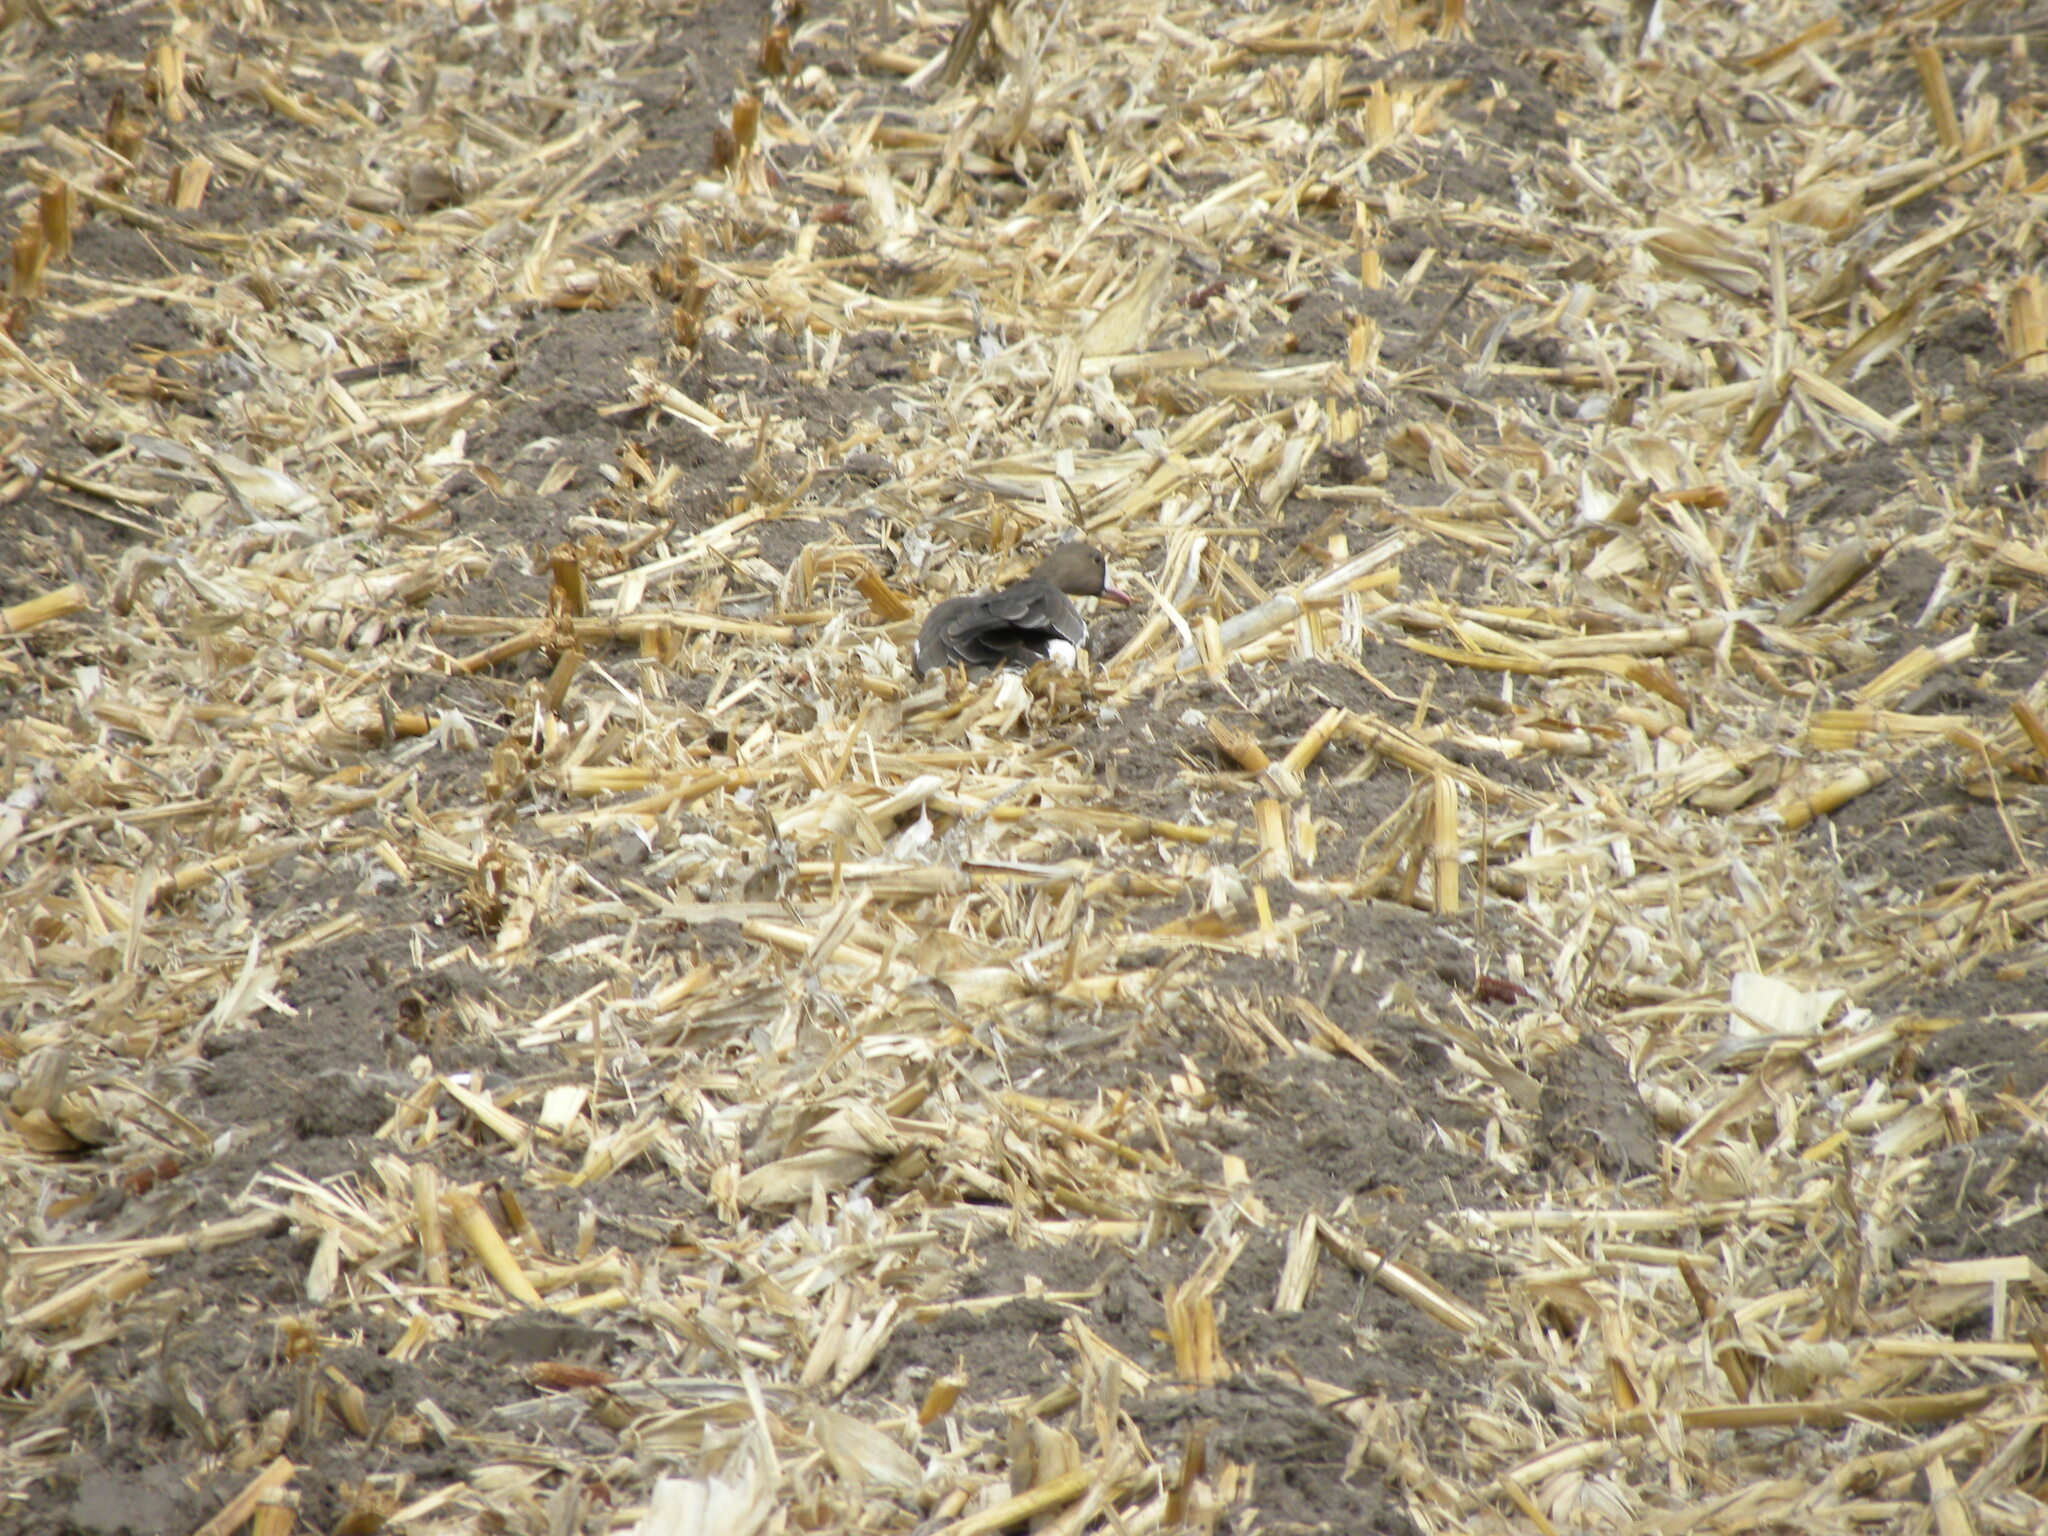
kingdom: Animalia
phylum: Chordata
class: Aves
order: Anseriformes
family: Anatidae
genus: Anser
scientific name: Anser albifrons
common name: Greater white-fronted goose
